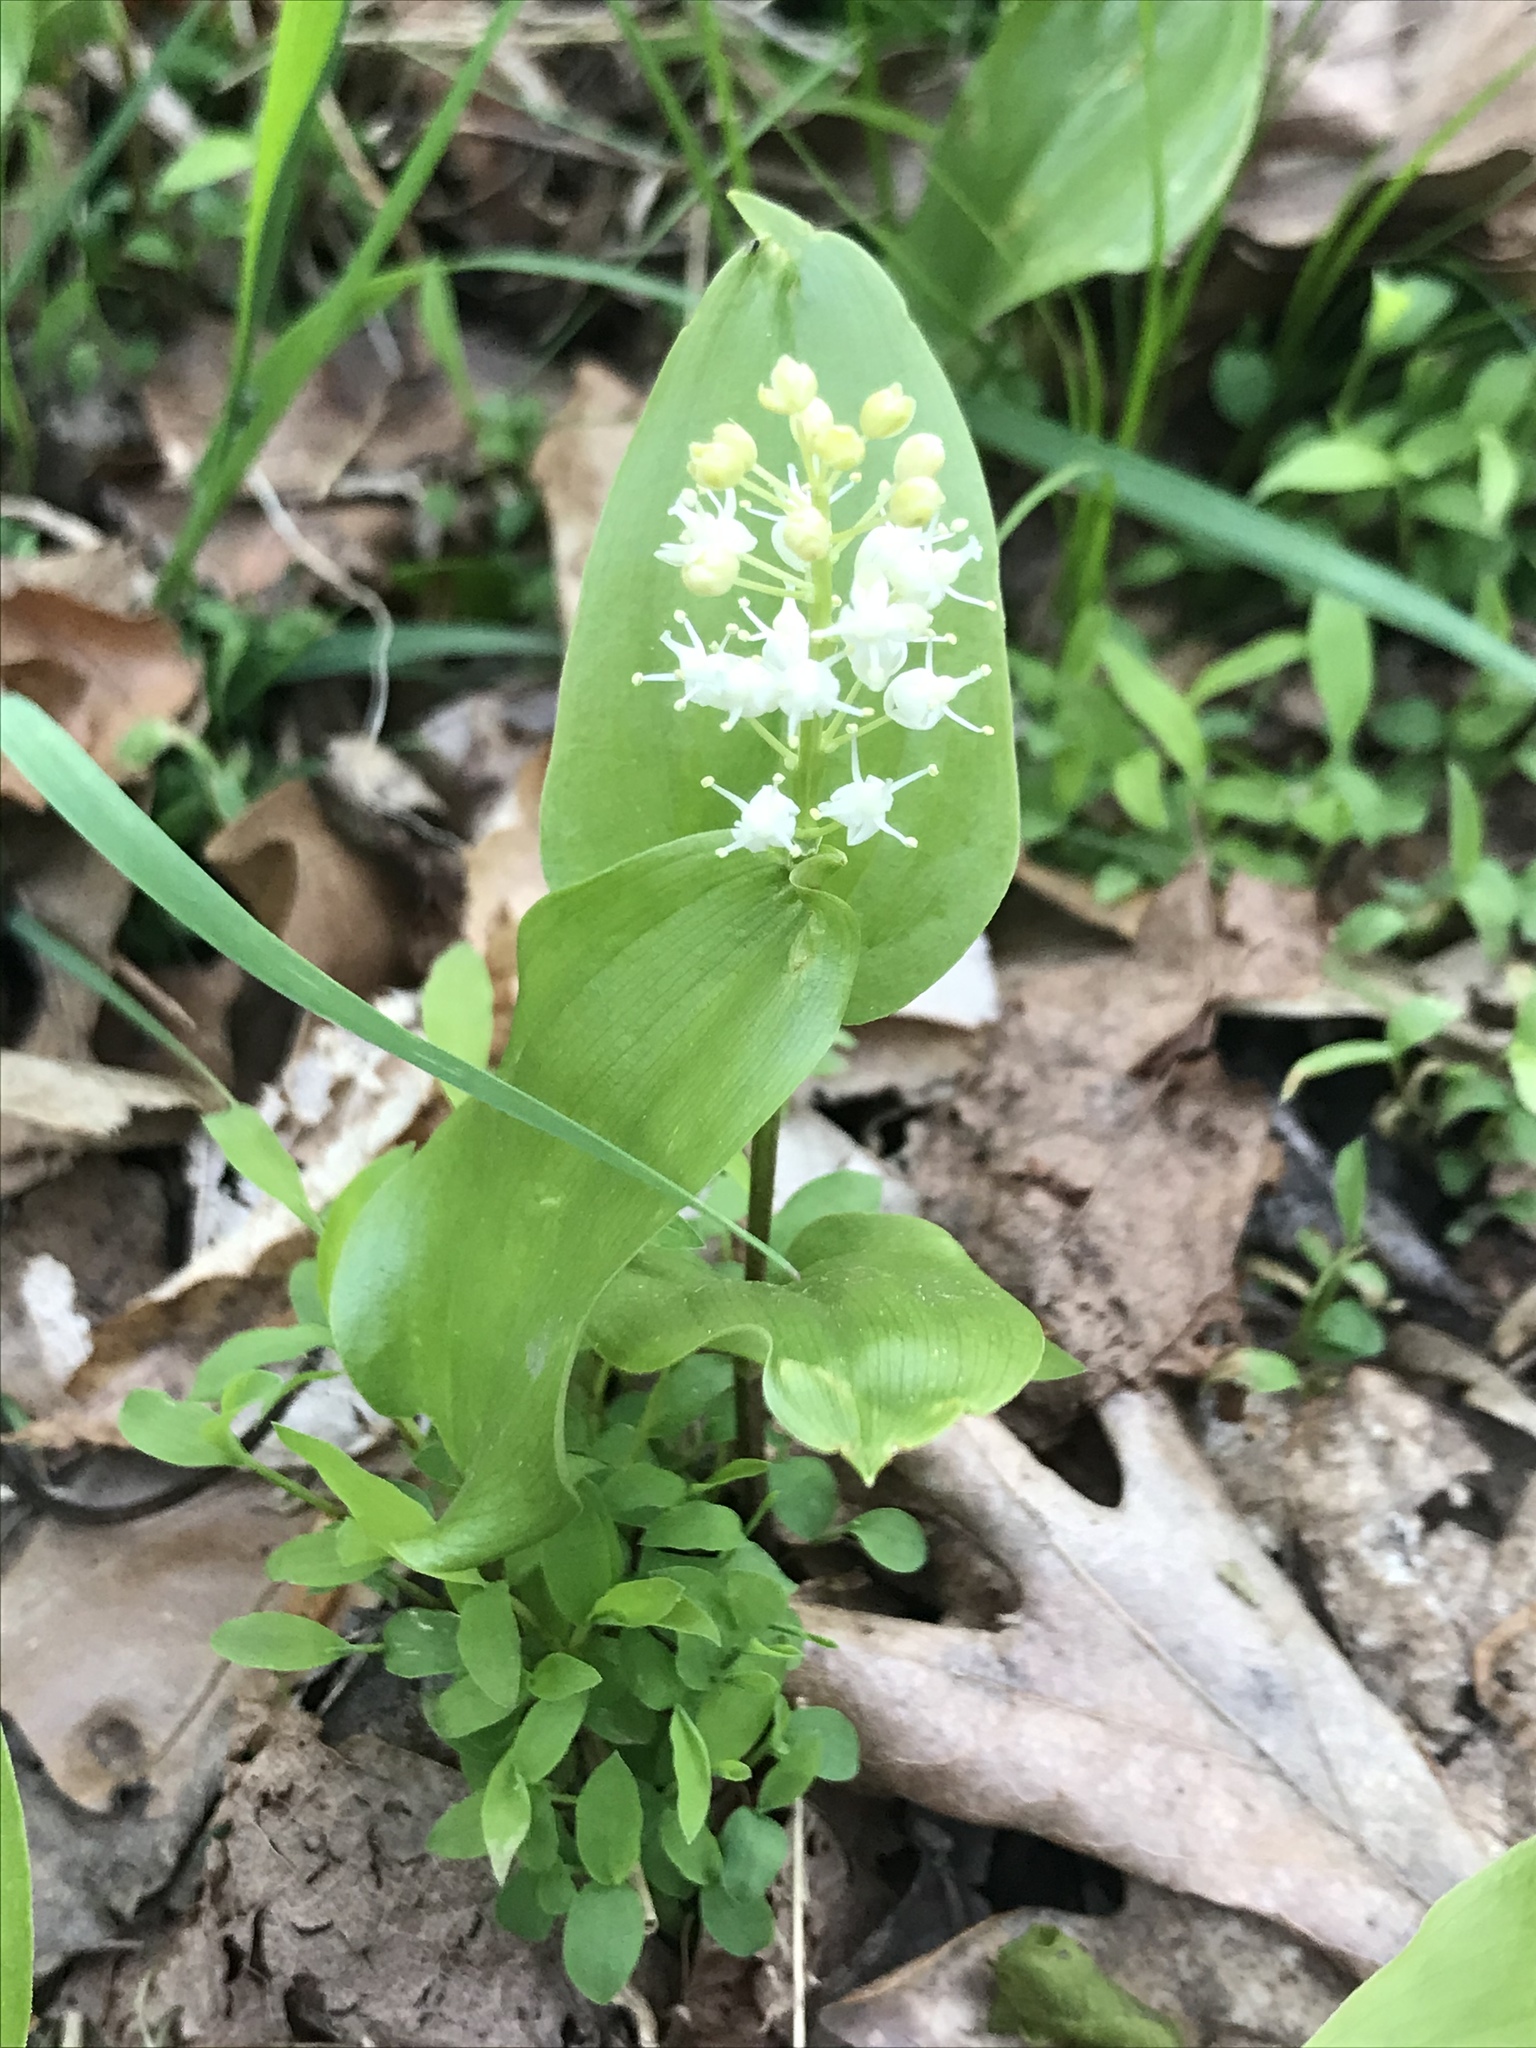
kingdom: Plantae
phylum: Tracheophyta
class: Liliopsida
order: Asparagales
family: Asparagaceae
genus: Maianthemum
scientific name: Maianthemum canadense
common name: False lily-of-the-valley
